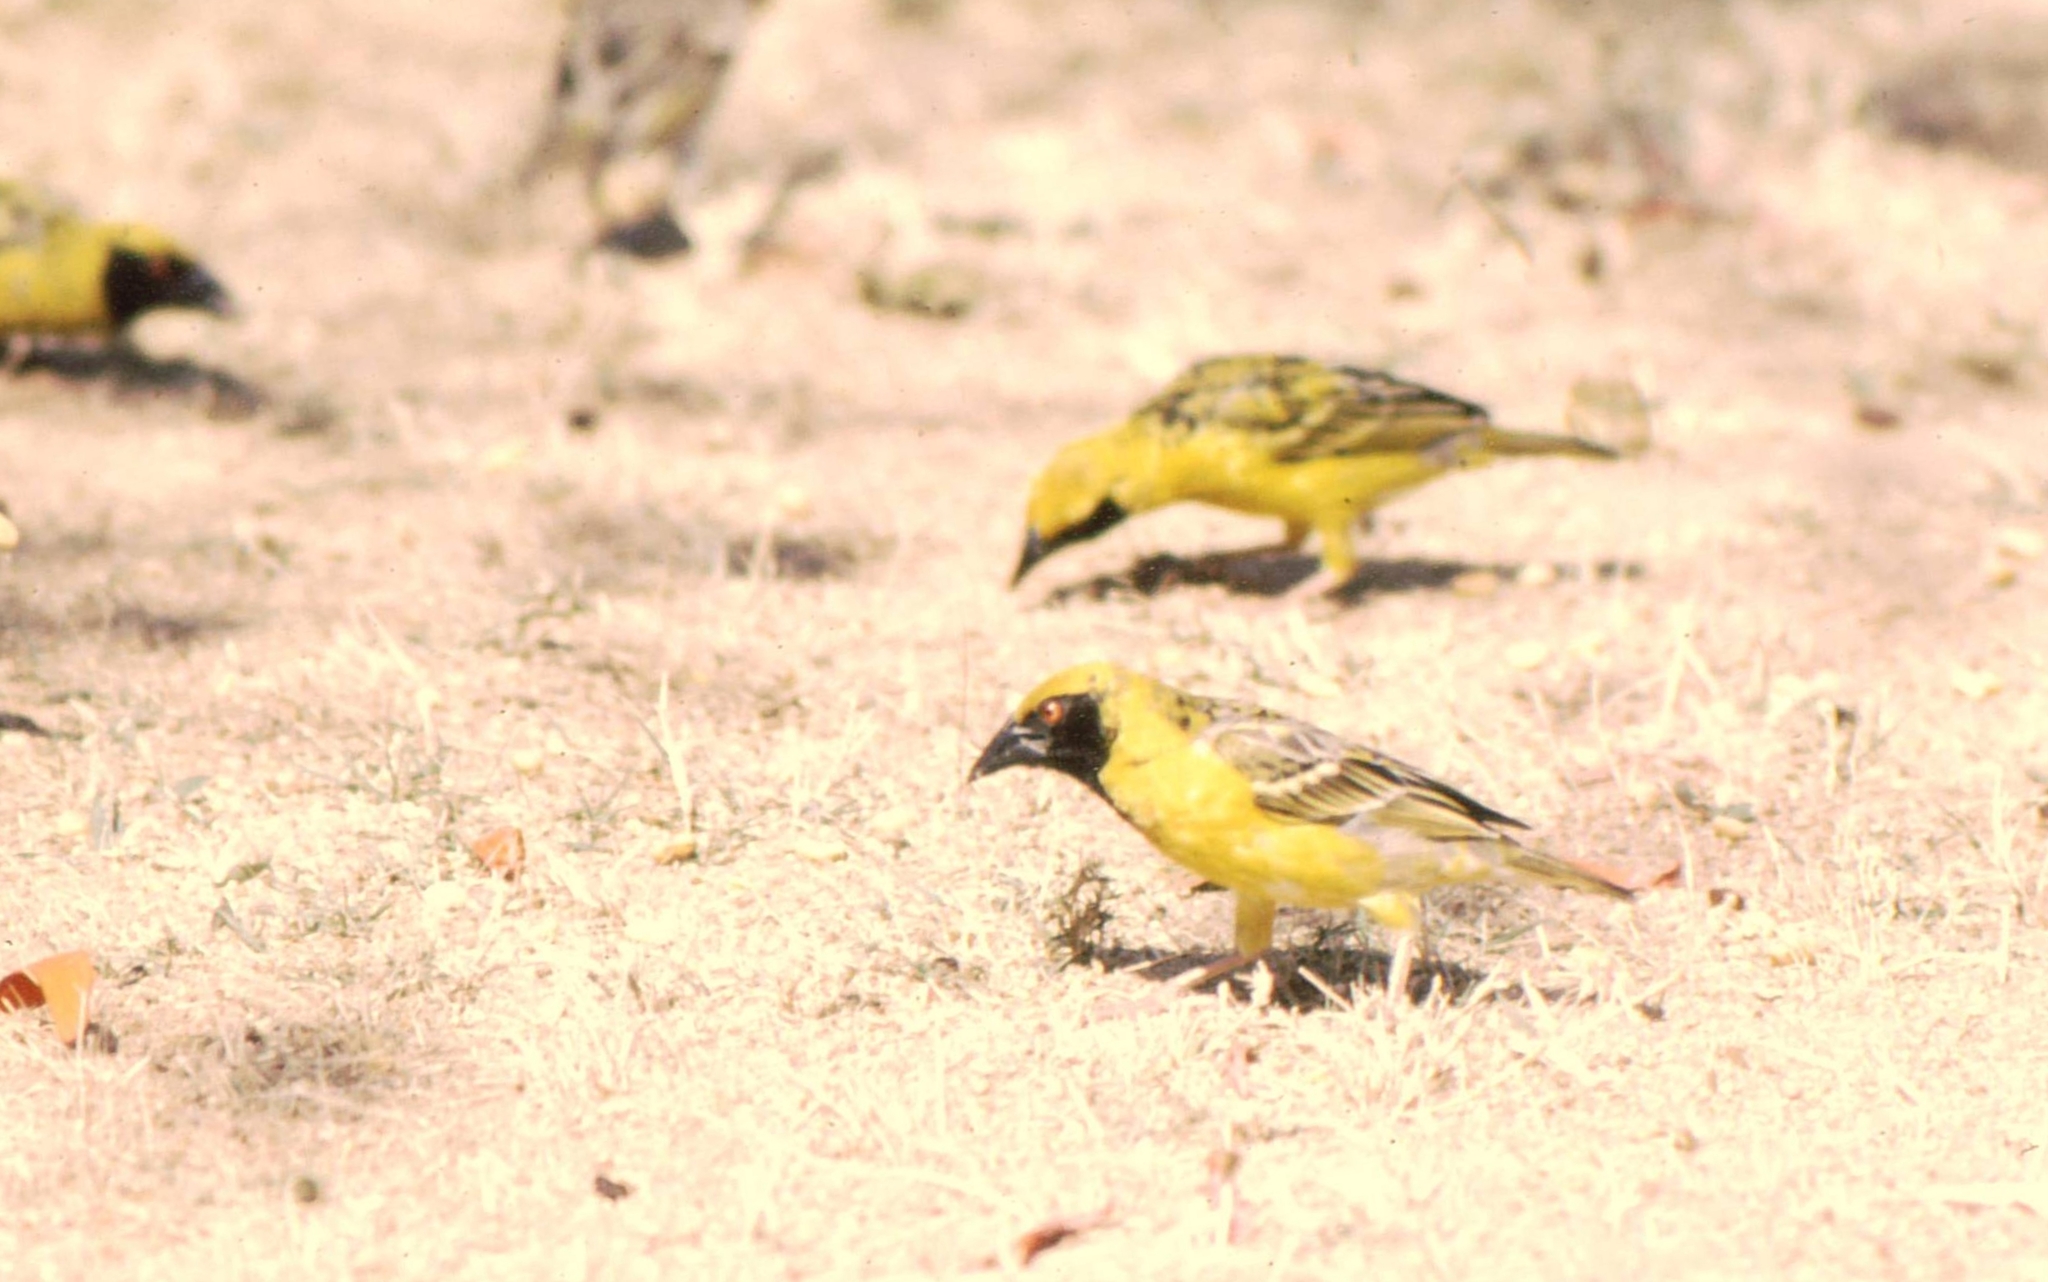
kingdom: Animalia
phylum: Chordata
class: Aves
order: Passeriformes
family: Ploceidae
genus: Ploceus
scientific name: Ploceus cucullatus
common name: Village weaver
